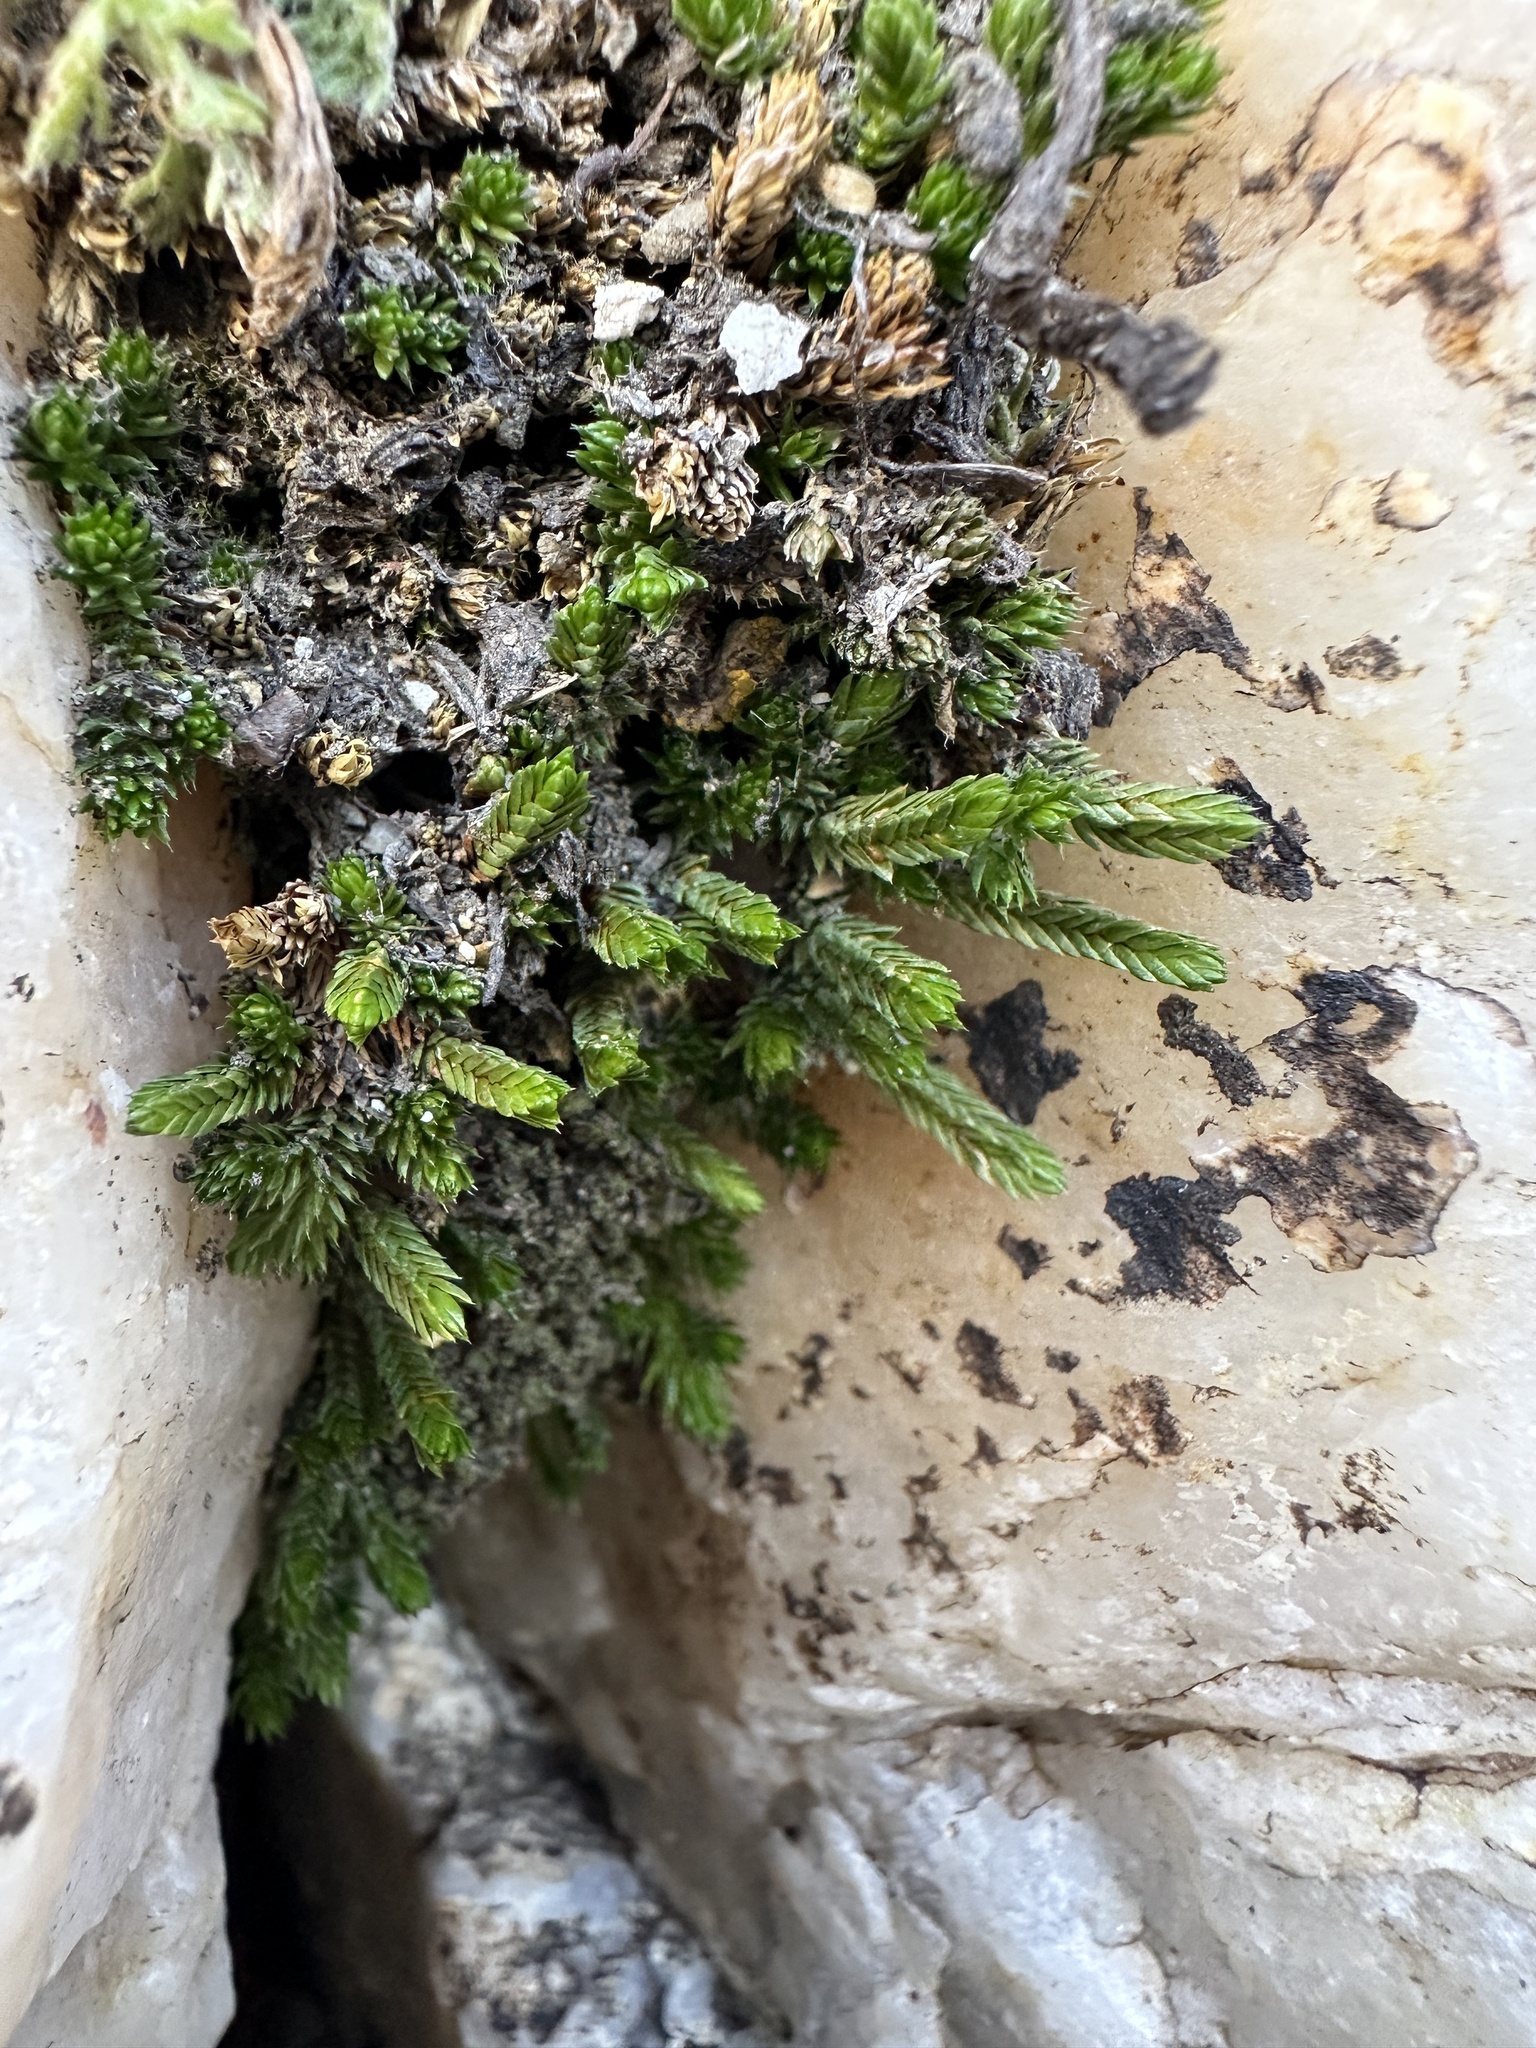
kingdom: Plantae
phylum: Tracheophyta
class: Lycopodiopsida
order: Selaginellales
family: Selaginellaceae
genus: Selaginella
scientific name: Selaginella watsonii
